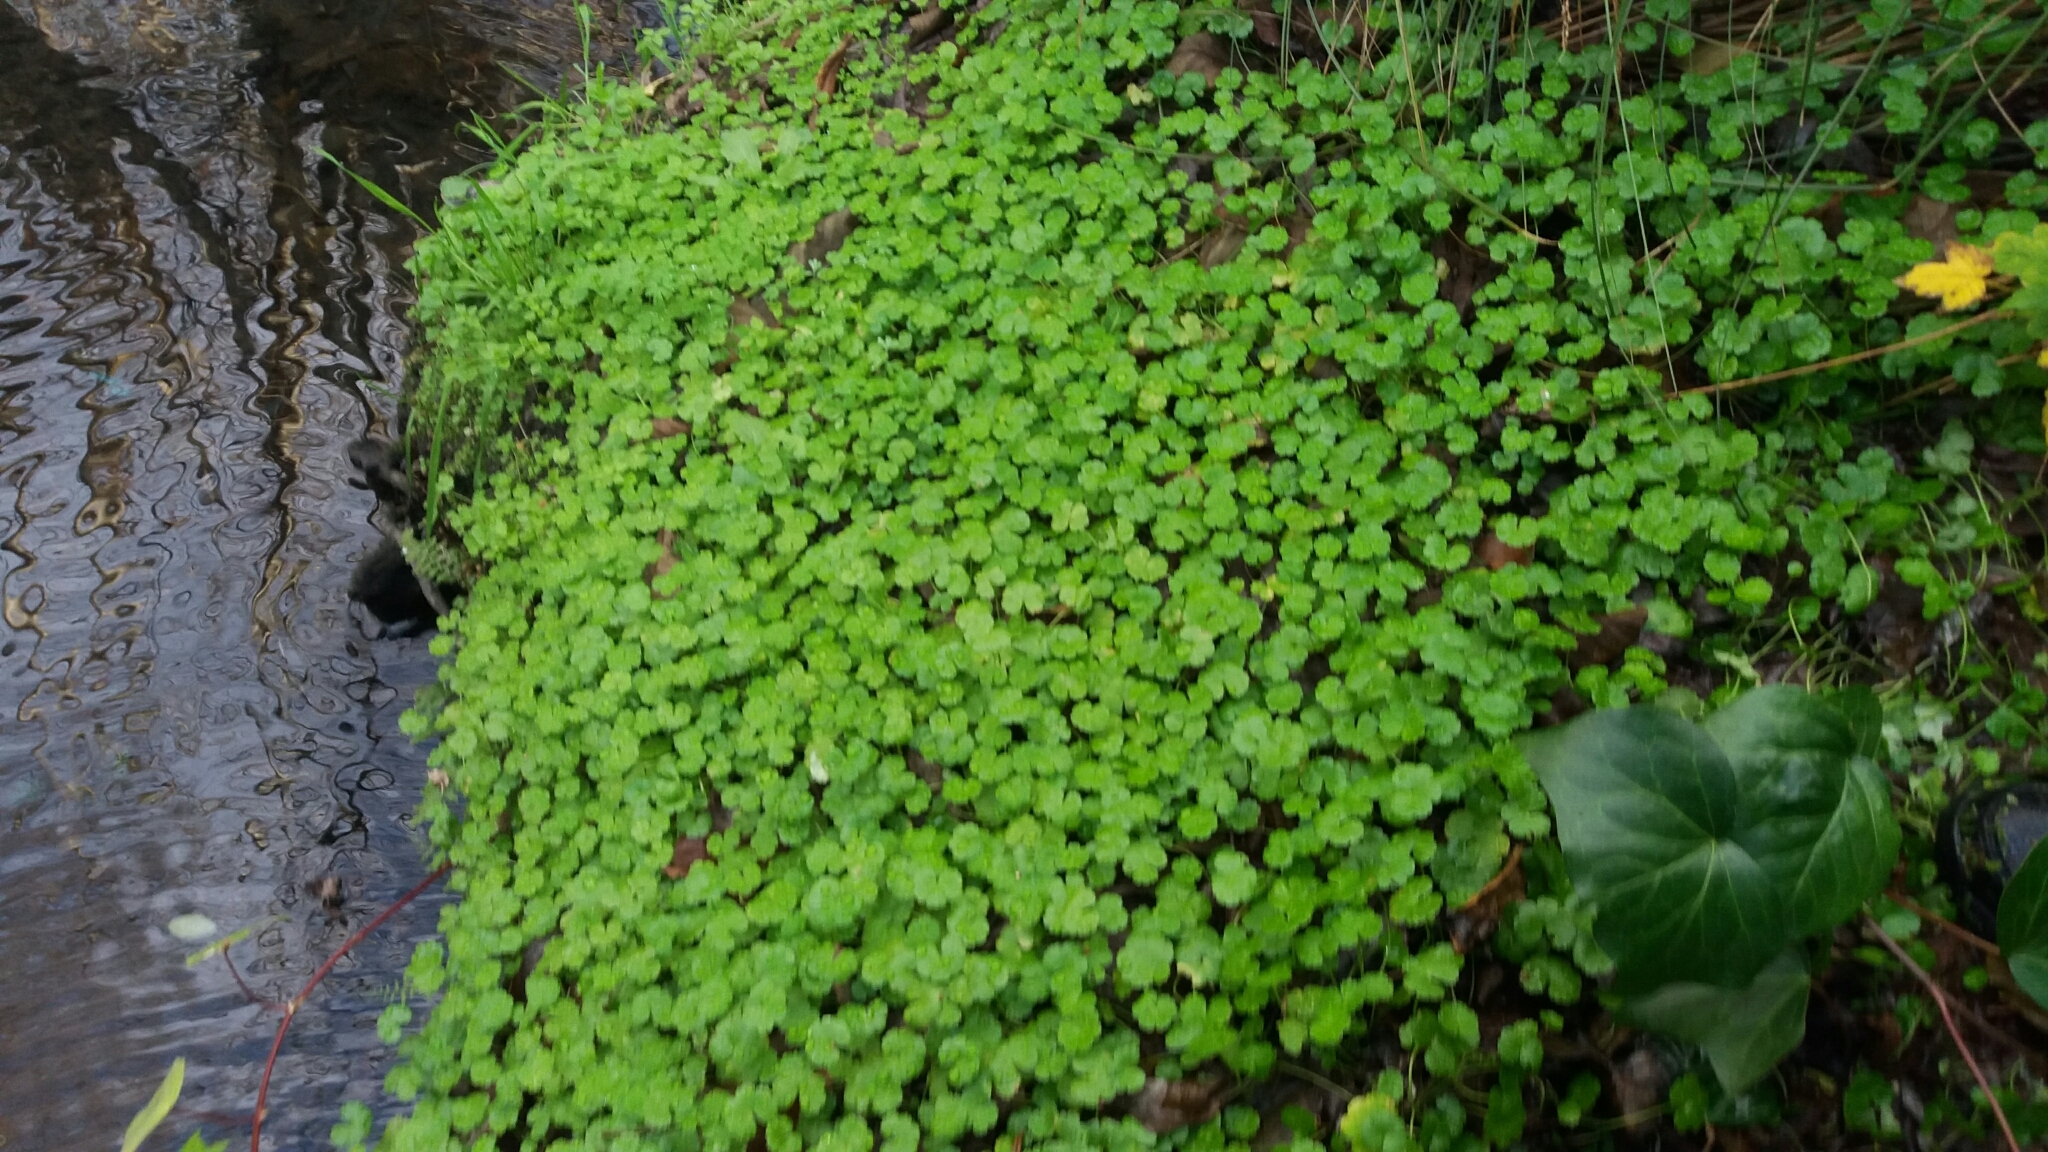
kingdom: Plantae
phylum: Tracheophyta
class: Magnoliopsida
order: Apiales
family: Araliaceae
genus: Hydrocotyle
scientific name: Hydrocotyle heteromeria
